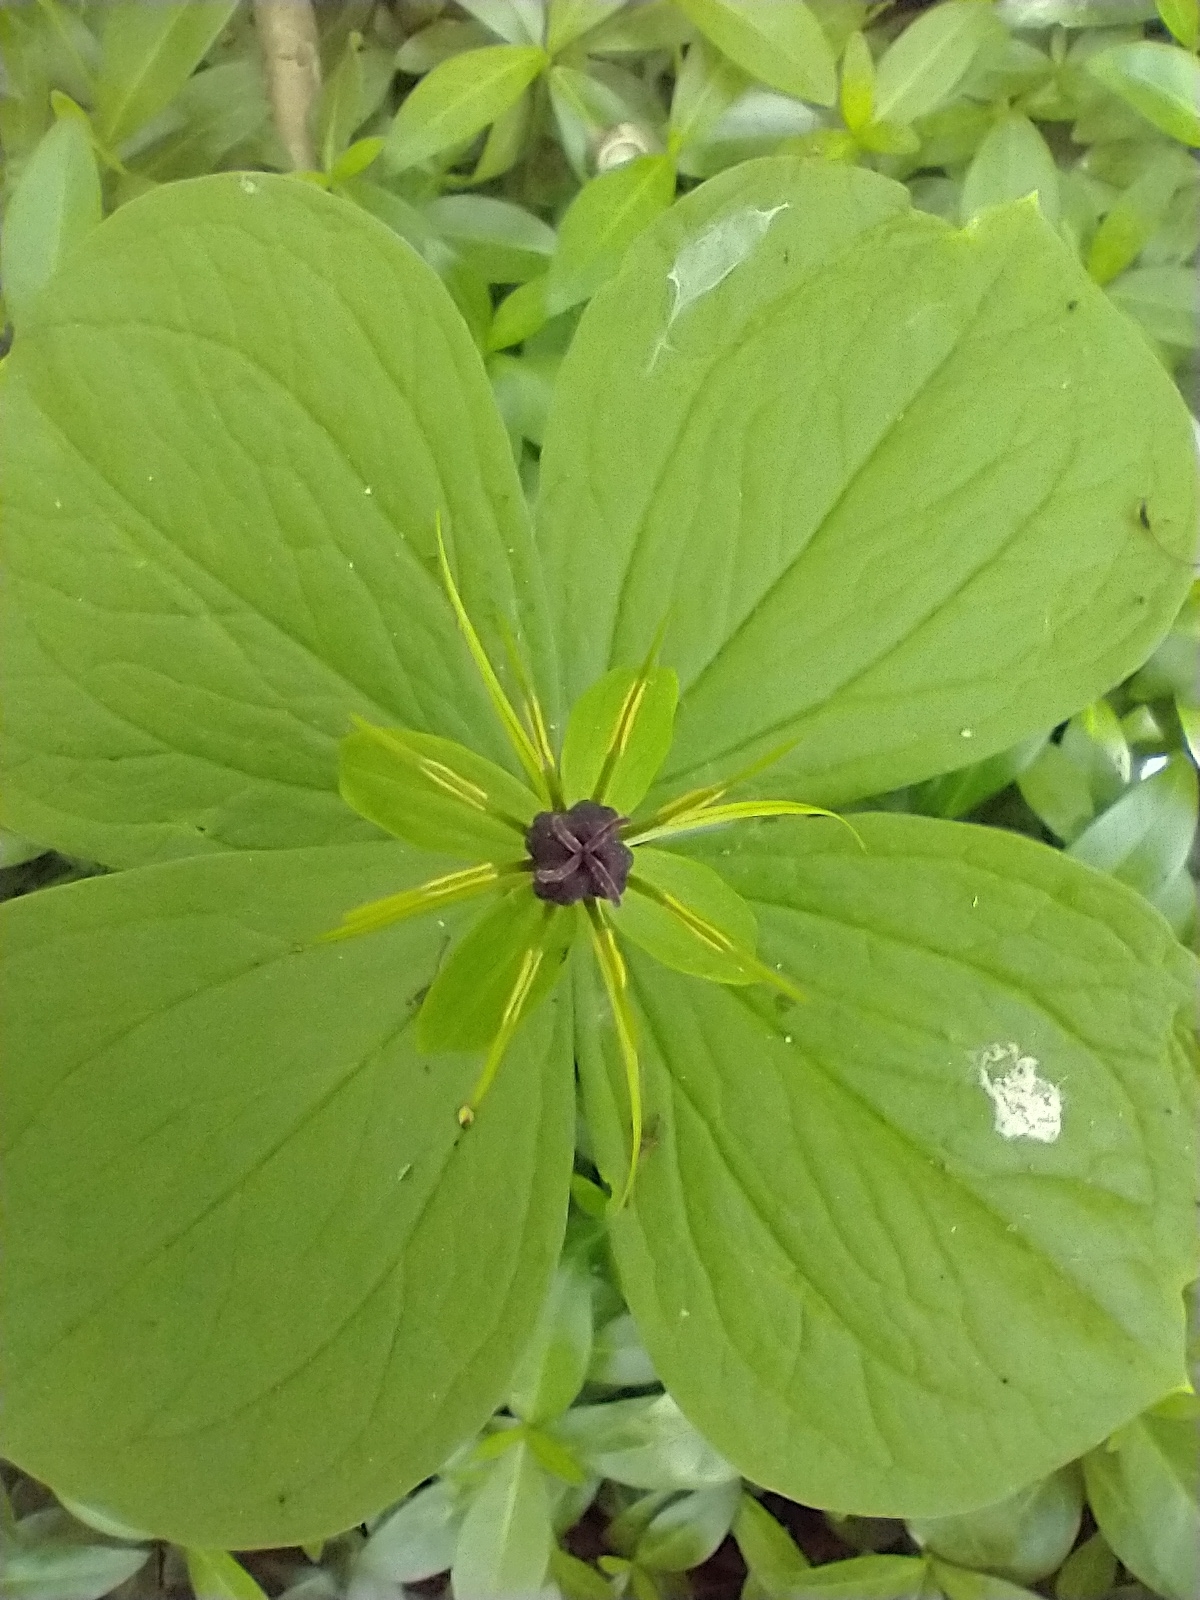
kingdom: Plantae
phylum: Tracheophyta
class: Liliopsida
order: Liliales
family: Melanthiaceae
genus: Paris
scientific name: Paris quadrifolia
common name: Herb-paris
